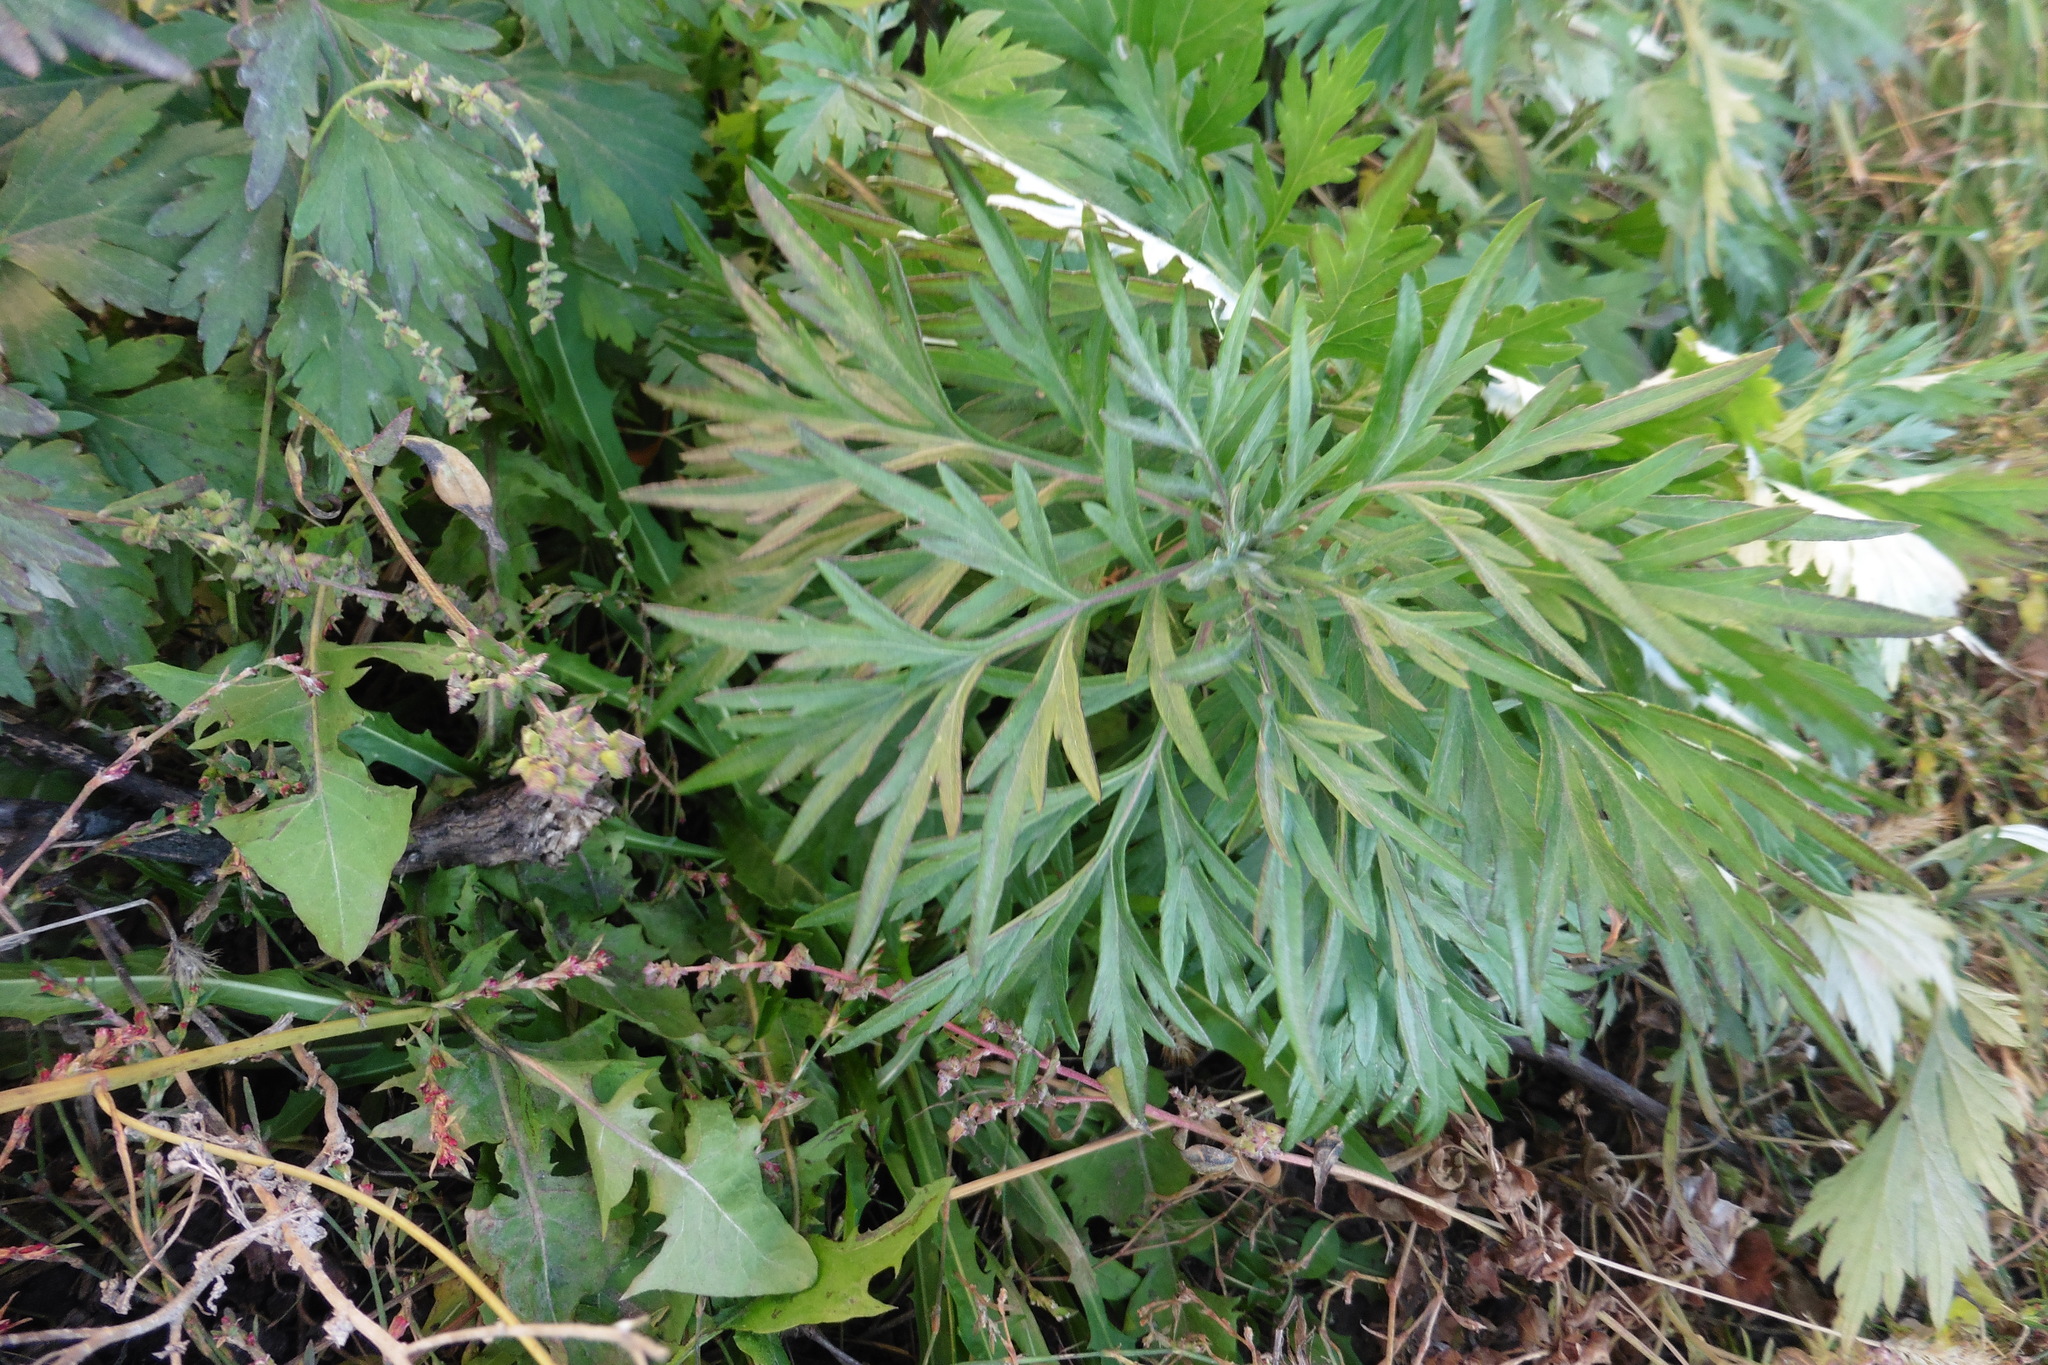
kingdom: Plantae
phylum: Tracheophyta
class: Magnoliopsida
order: Asterales
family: Asteraceae
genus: Artemisia
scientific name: Artemisia vulgaris
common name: Mugwort
